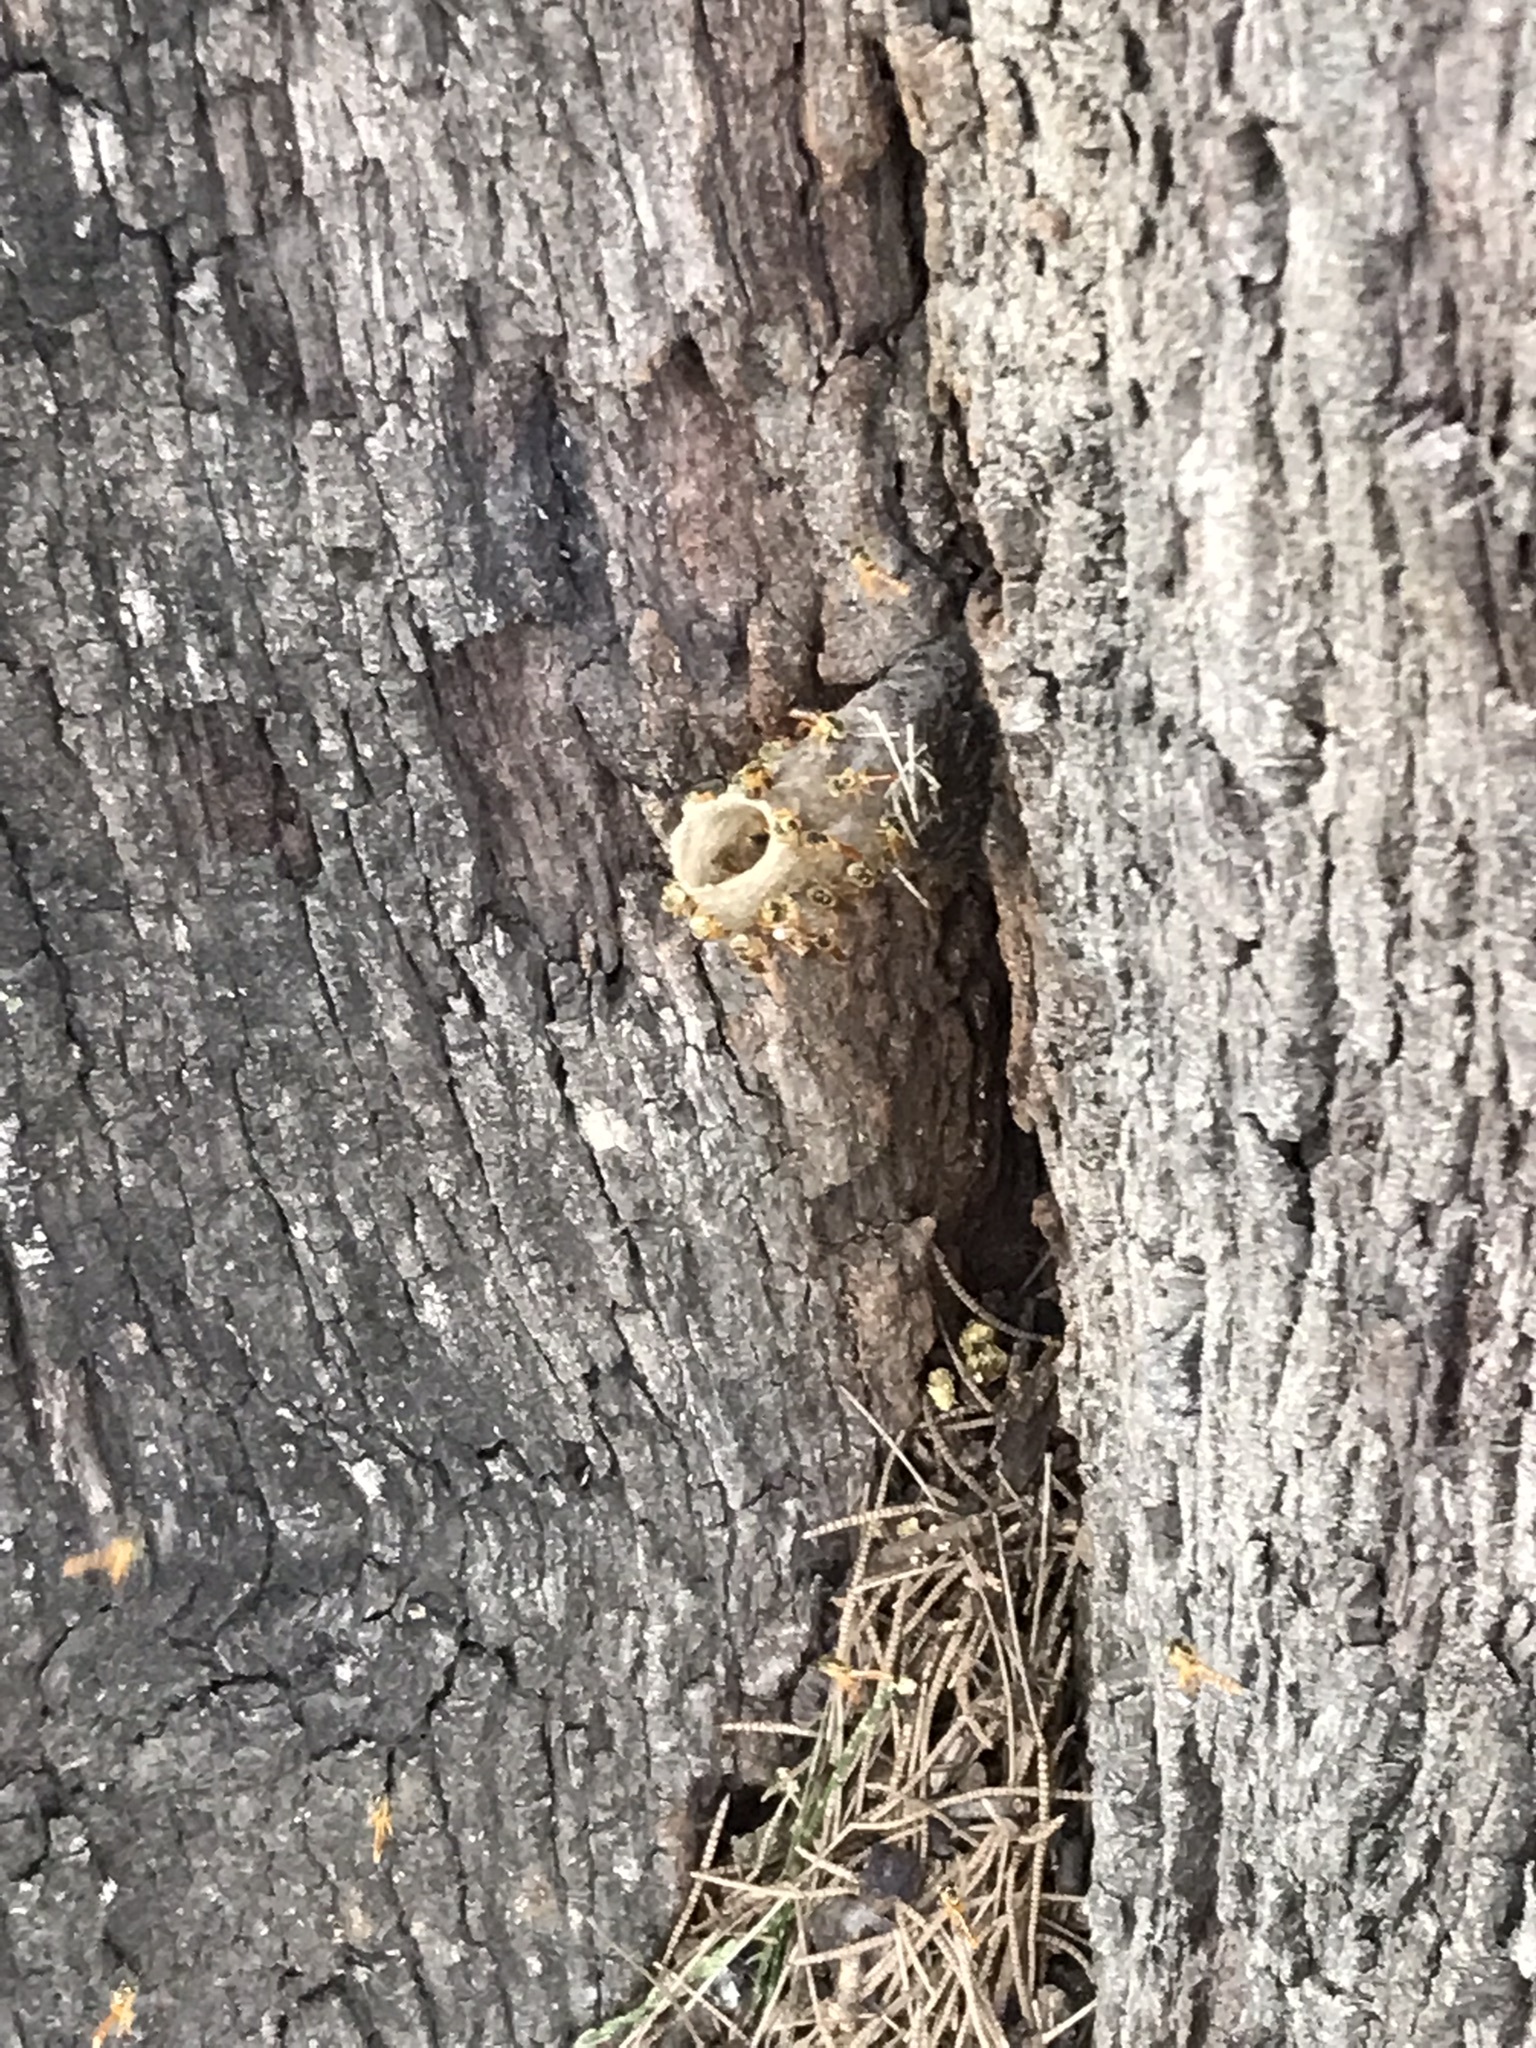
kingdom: Animalia
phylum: Arthropoda
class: Insecta
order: Hymenoptera
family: Apidae
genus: Tetragonisca
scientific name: Tetragonisca fiebrigi
